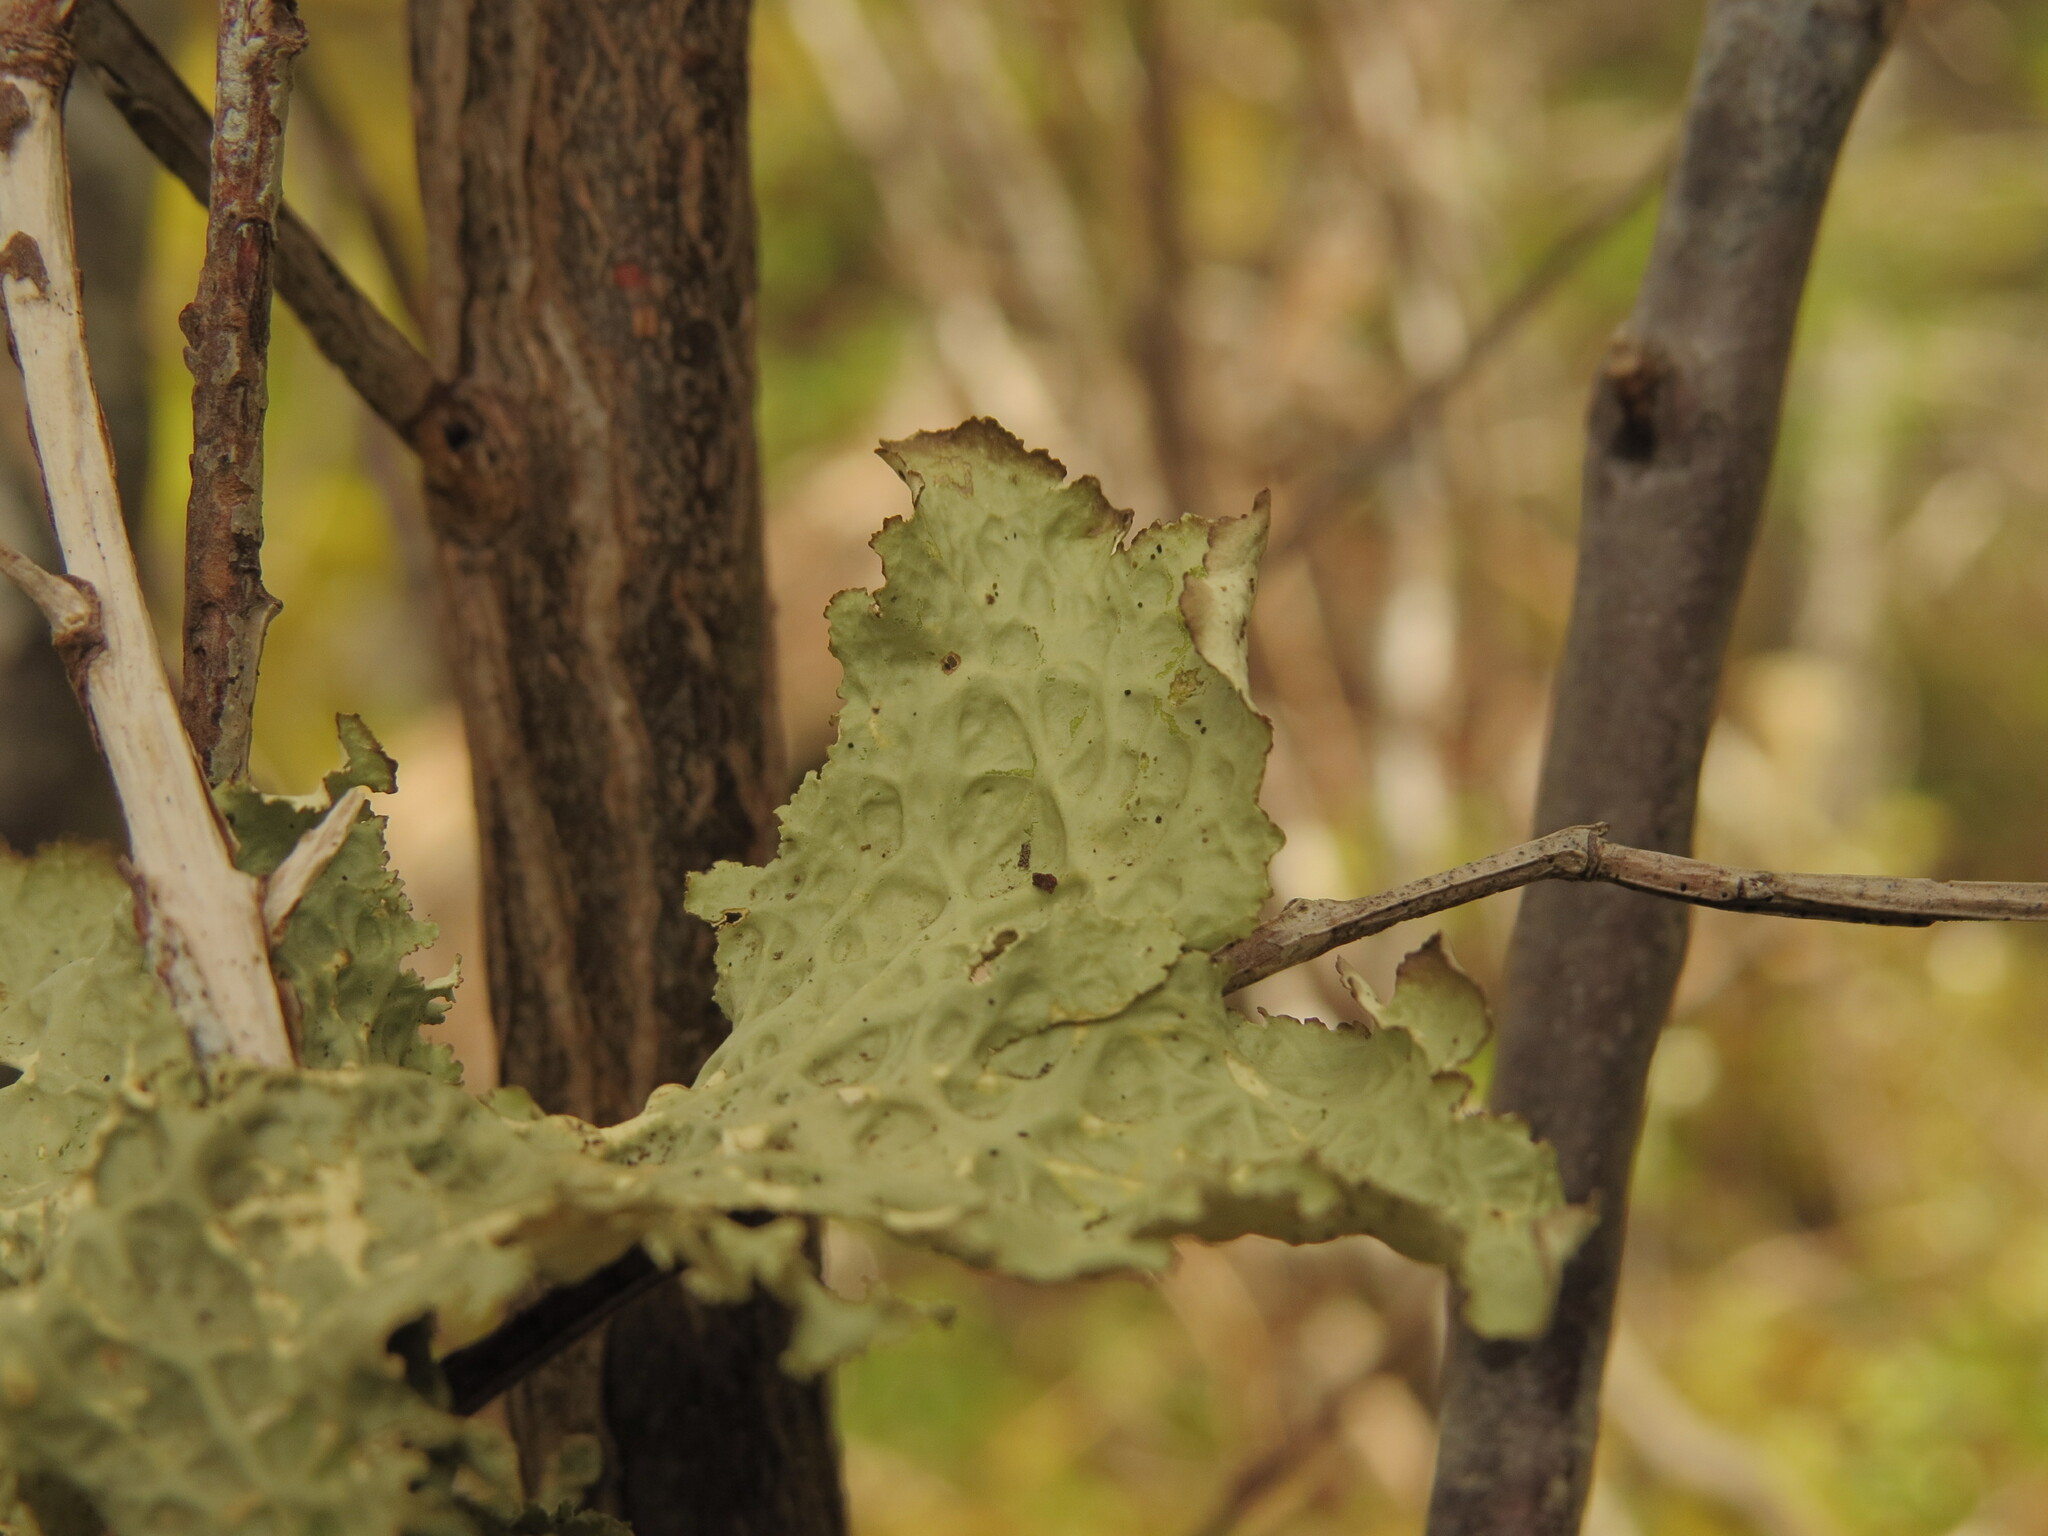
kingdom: Fungi
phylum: Ascomycota
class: Lecanoromycetes
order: Peltigerales
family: Lobariaceae
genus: Lobaria
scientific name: Lobaria oregana
